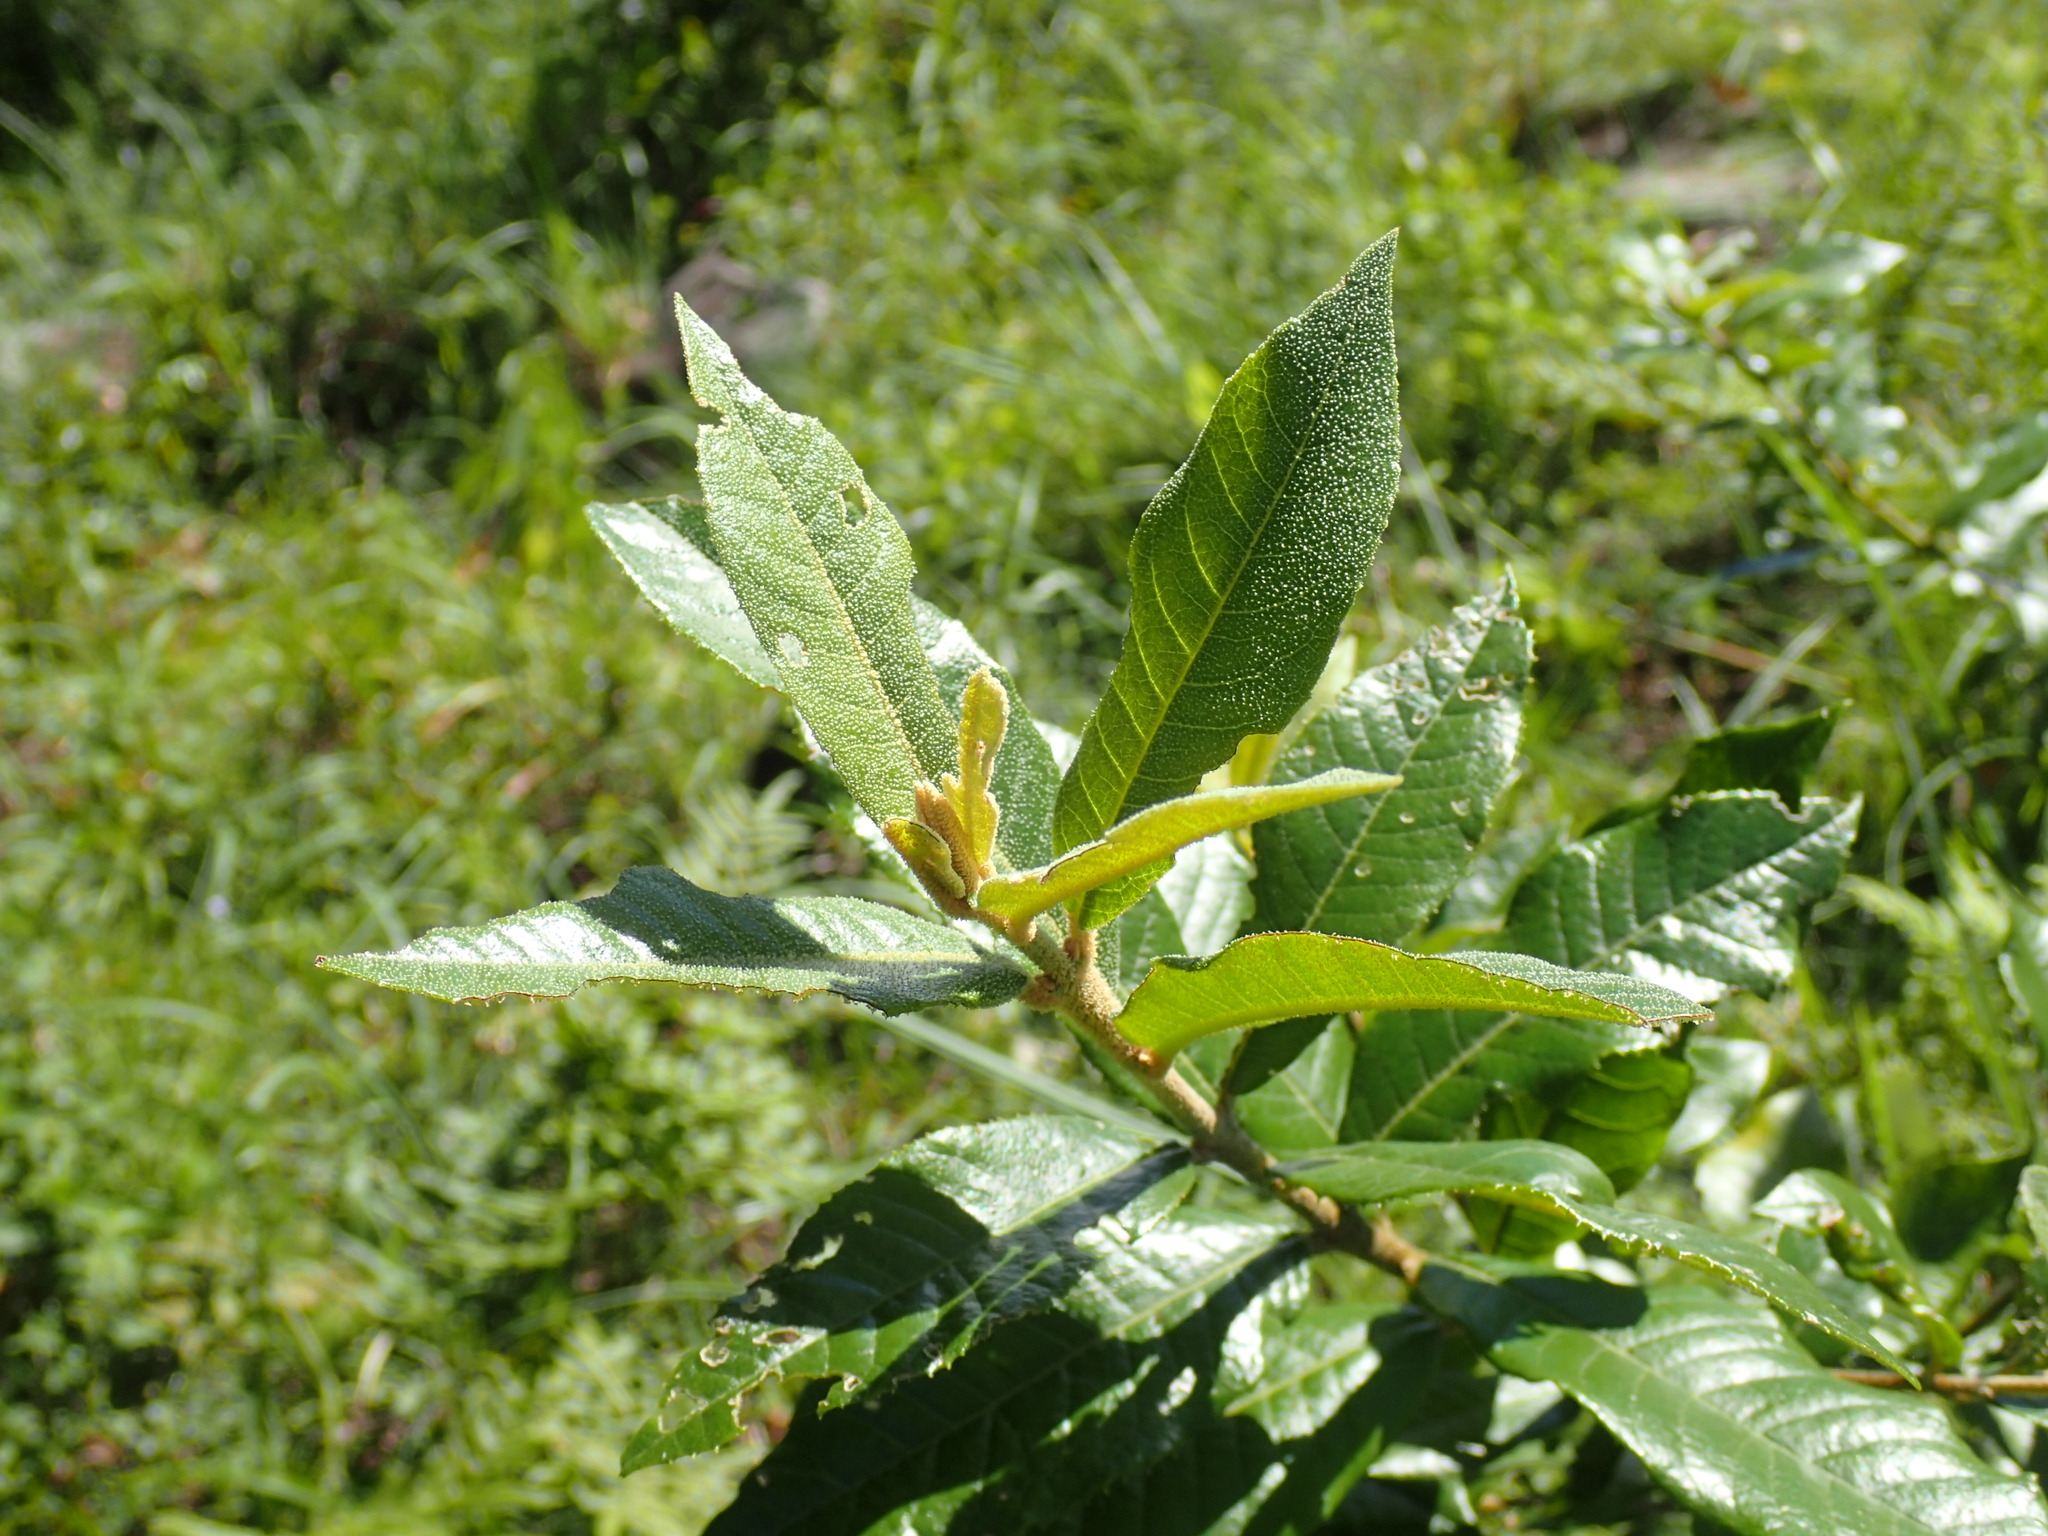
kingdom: Plantae
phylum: Tracheophyta
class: Magnoliopsida
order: Lamiales
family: Stilbaceae
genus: Anastrabe
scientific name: Anastrabe integerrima
